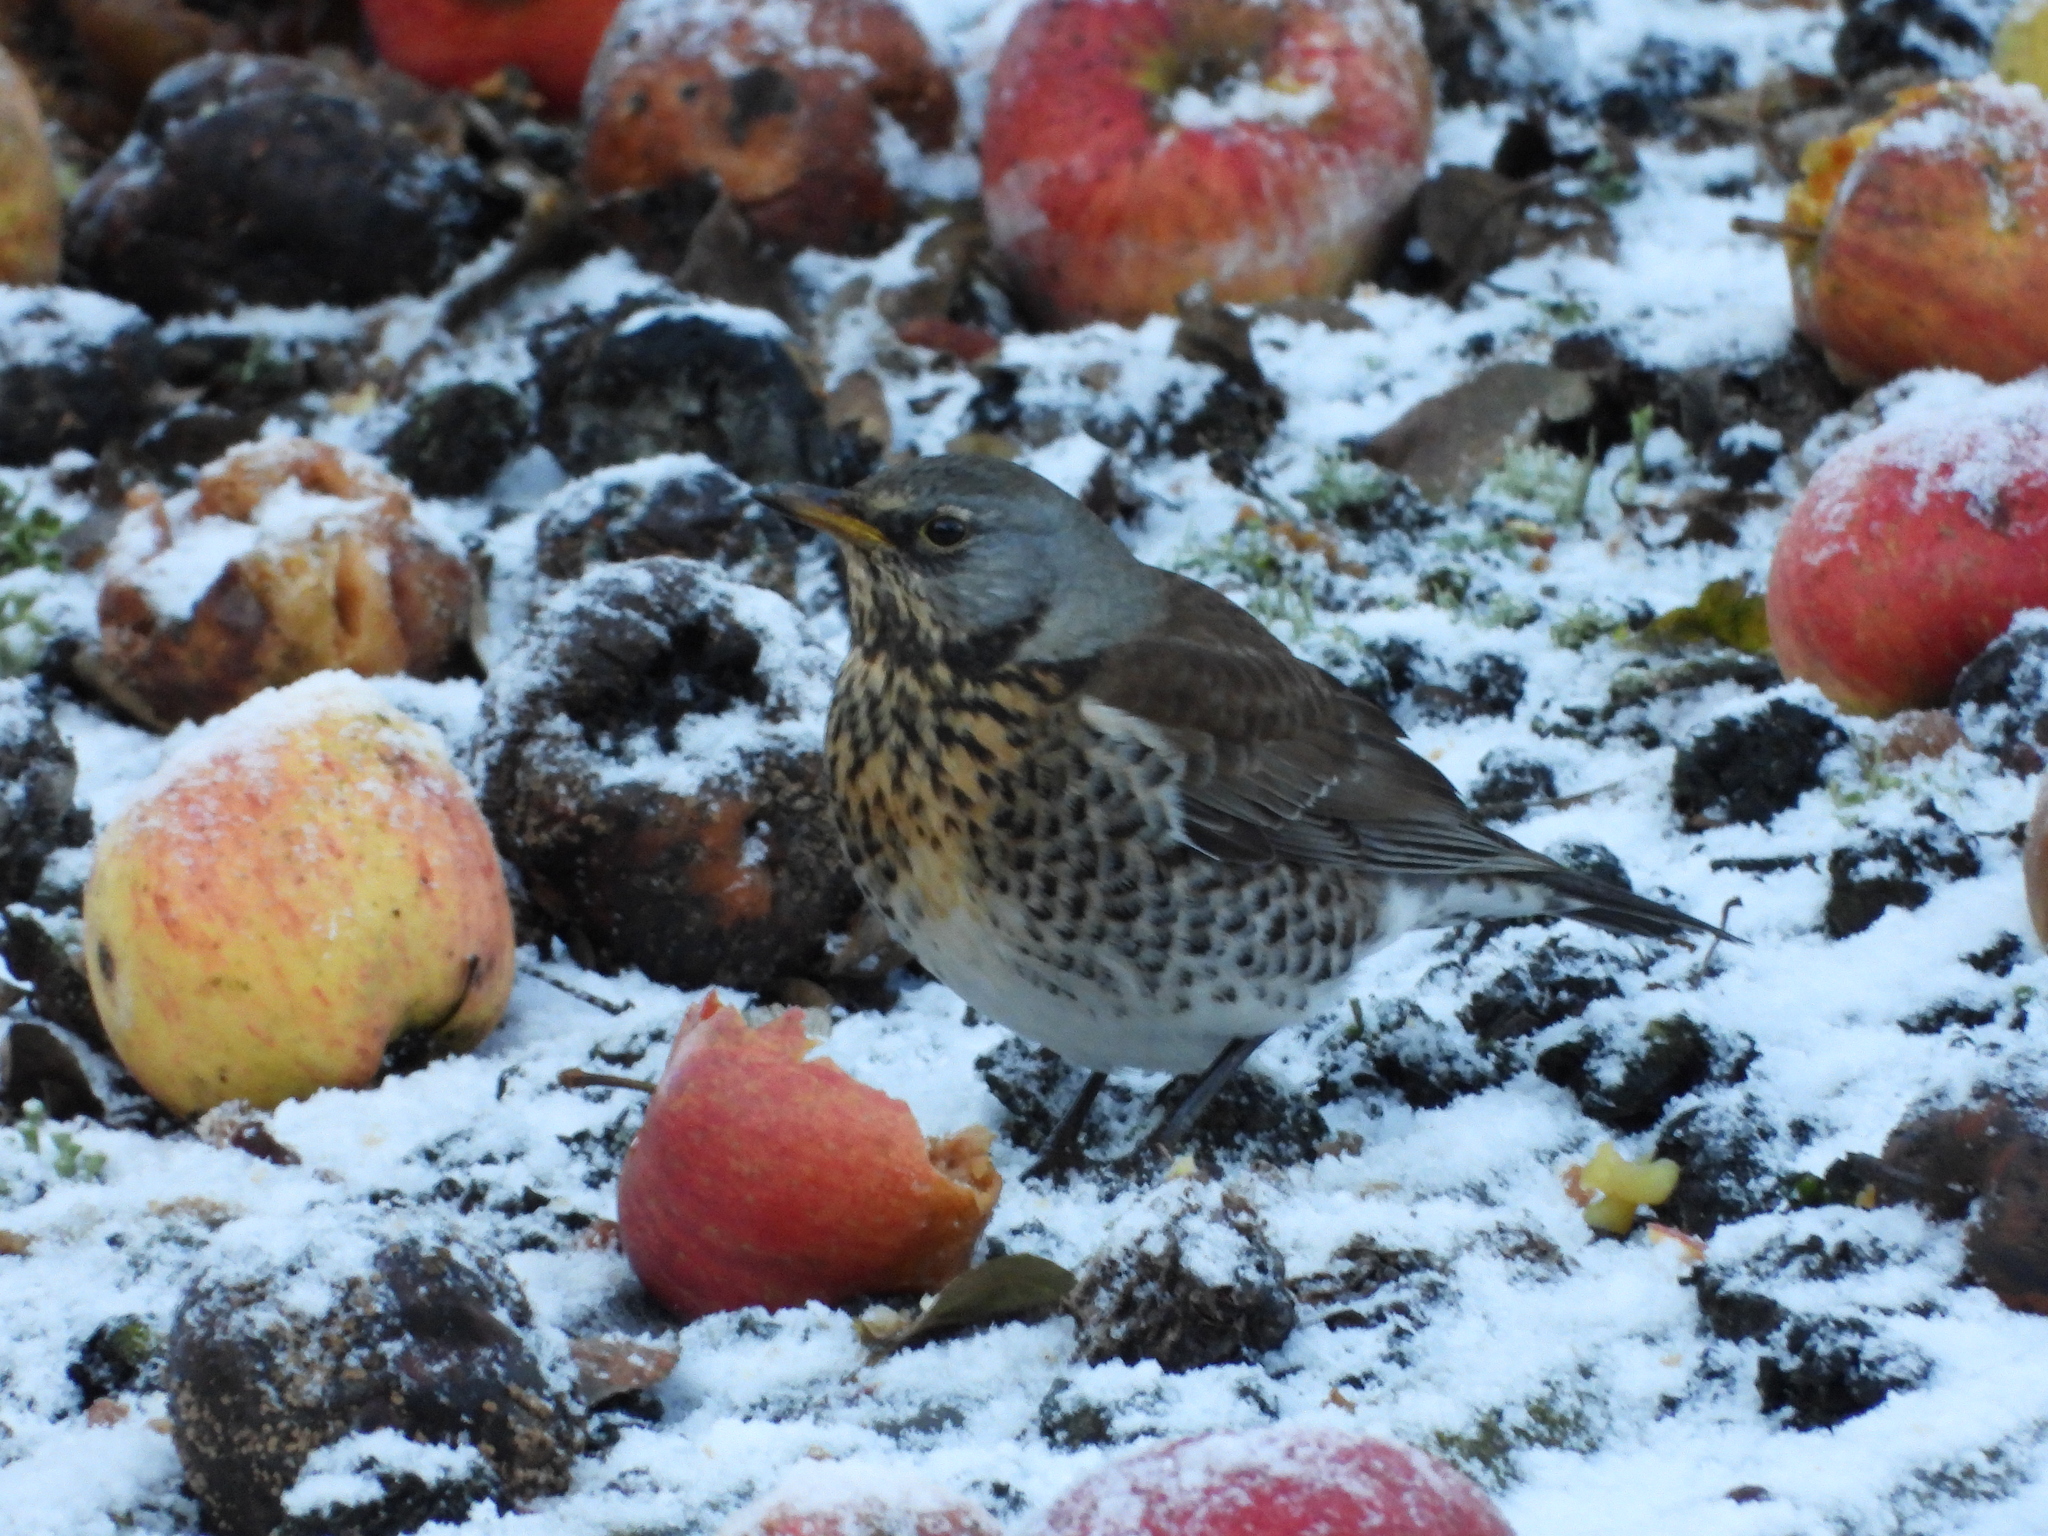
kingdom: Animalia
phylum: Chordata
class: Aves
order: Passeriformes
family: Turdidae
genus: Turdus
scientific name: Turdus pilaris
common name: Fieldfare
